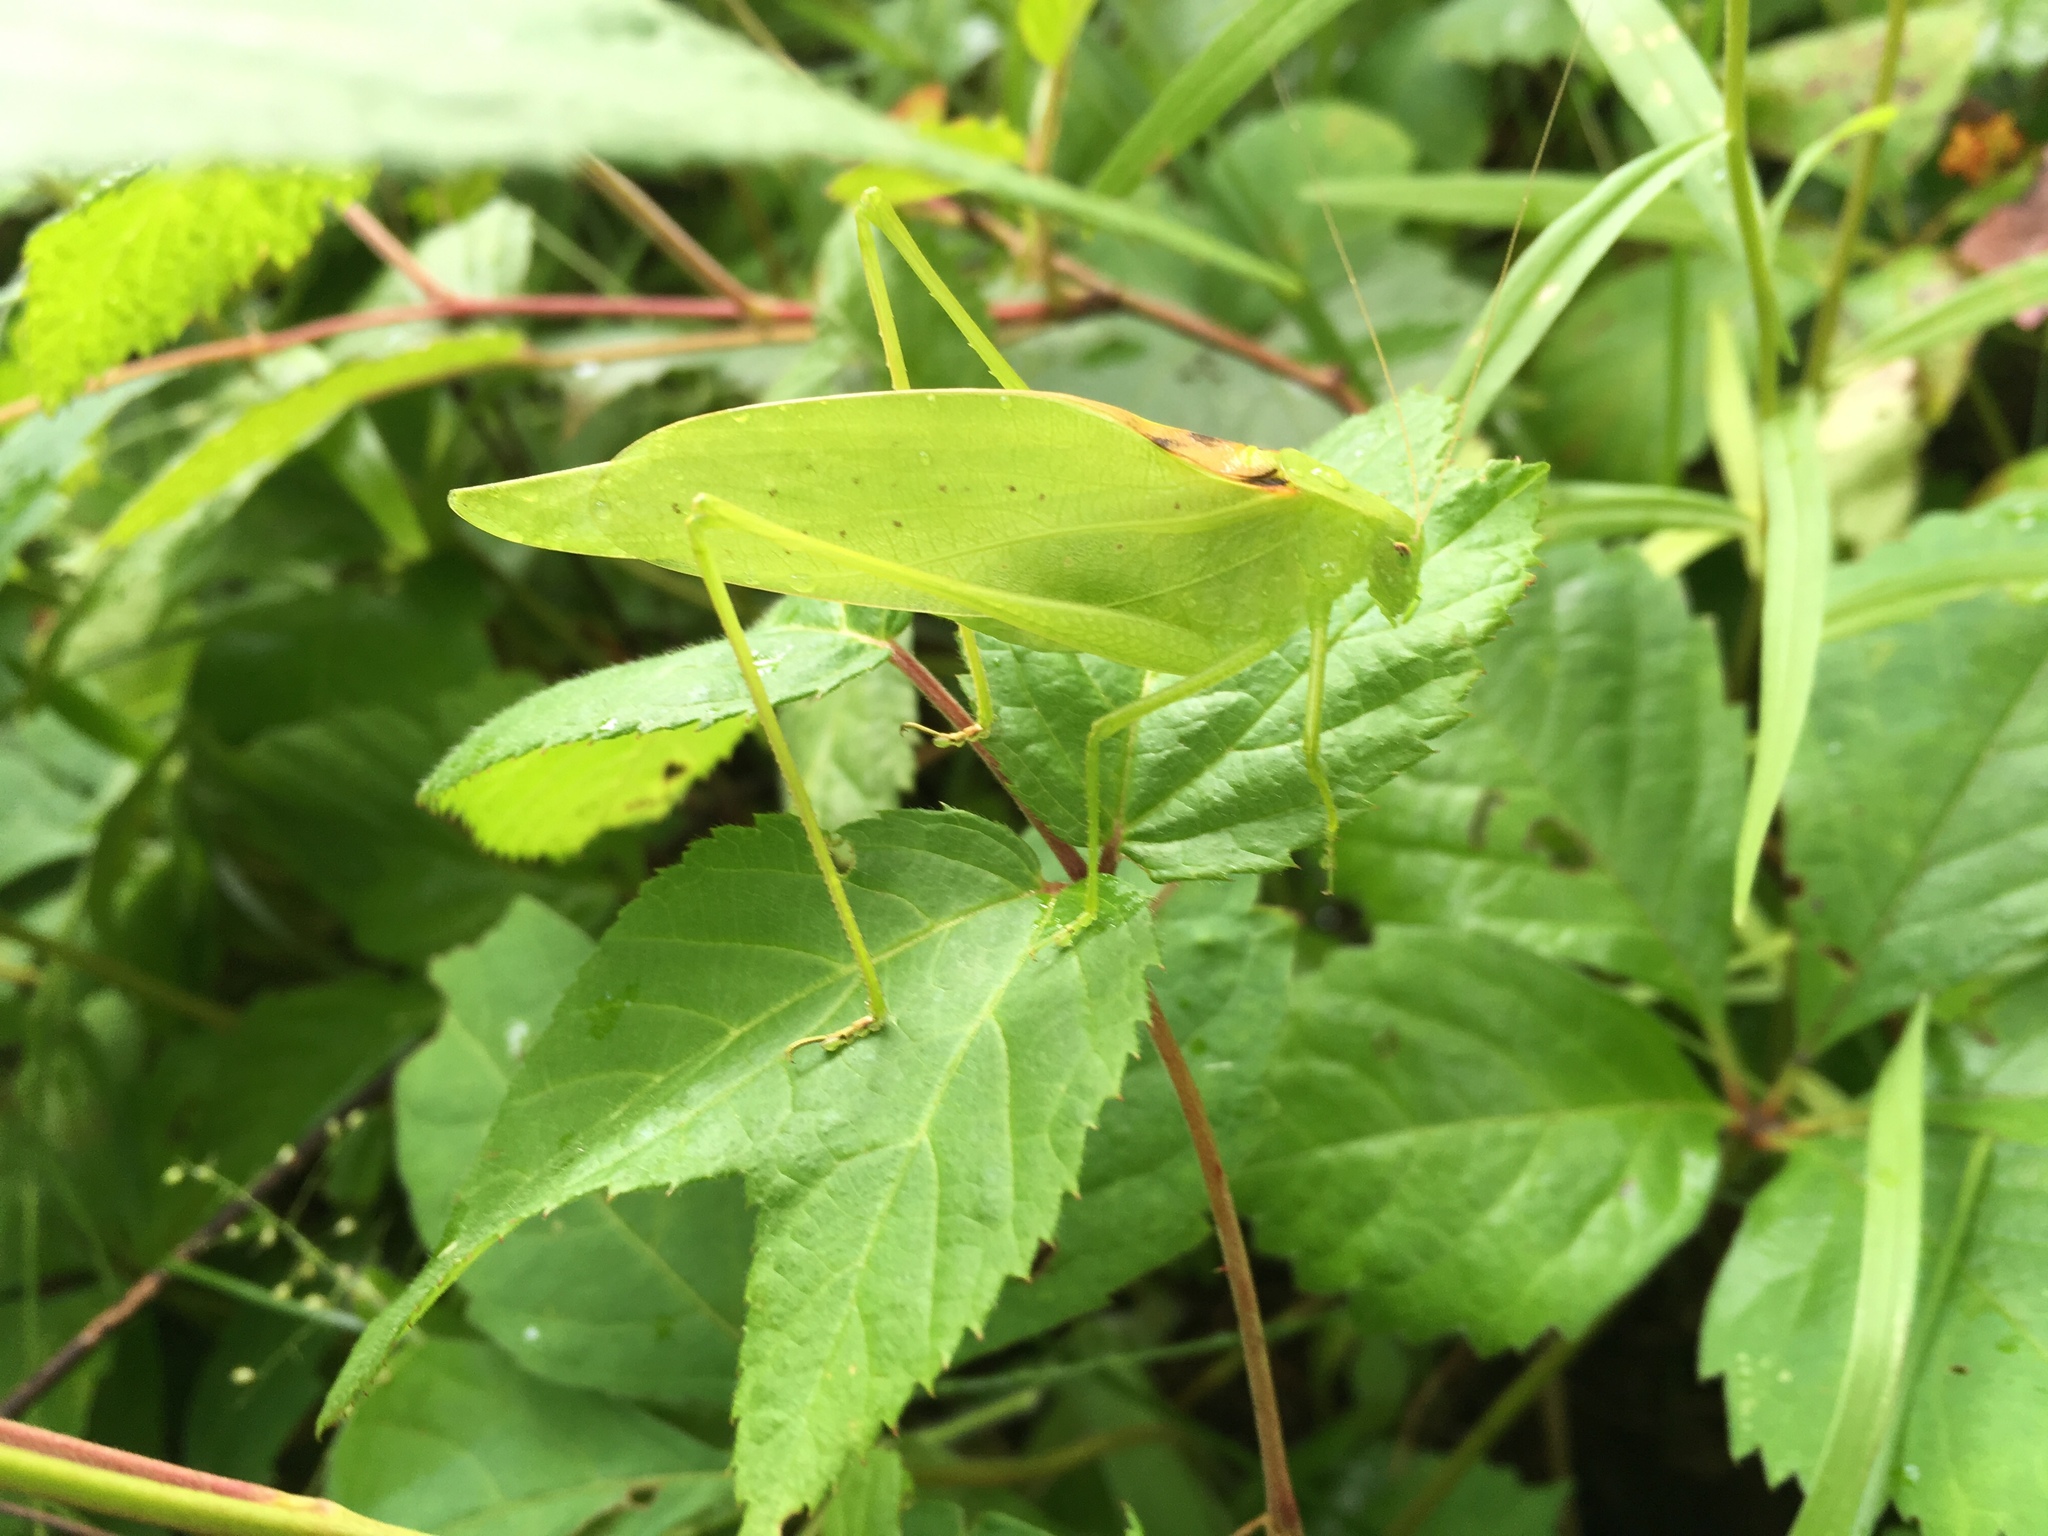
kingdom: Animalia
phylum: Arthropoda
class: Insecta
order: Orthoptera
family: Tettigoniidae
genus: Amblycorypha
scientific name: Amblycorypha oblongifolia
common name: Oblong-winged katydid
